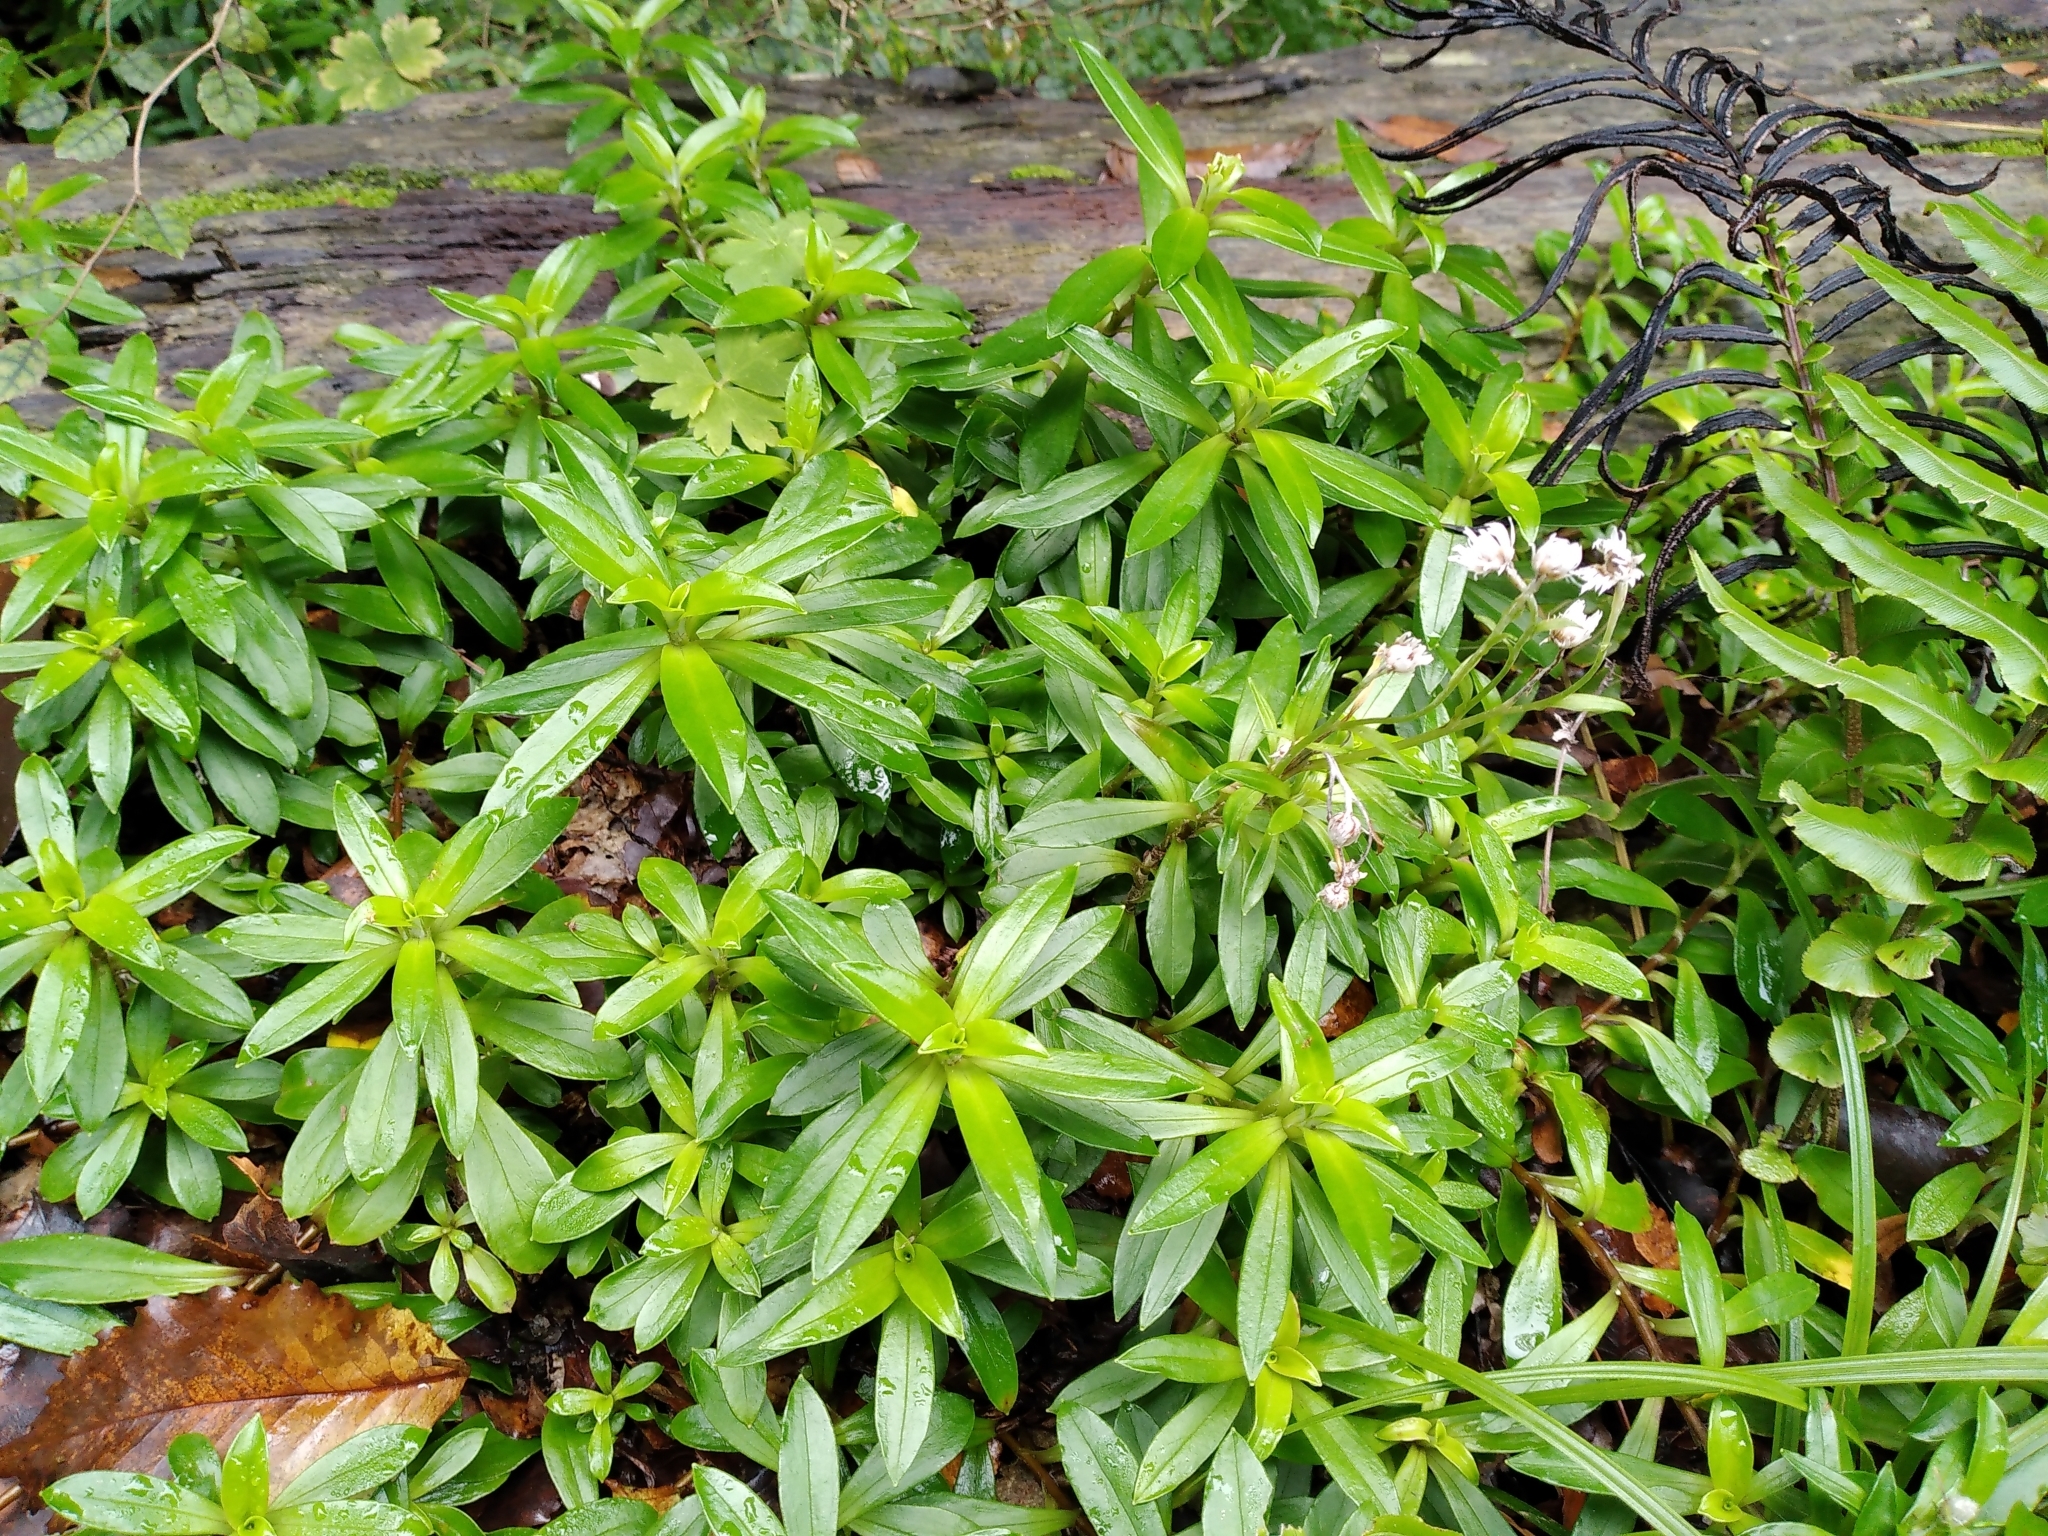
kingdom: Plantae
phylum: Tracheophyta
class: Magnoliopsida
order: Asterales
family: Asteraceae
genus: Anaphalioides
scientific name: Anaphalioides trinervis
